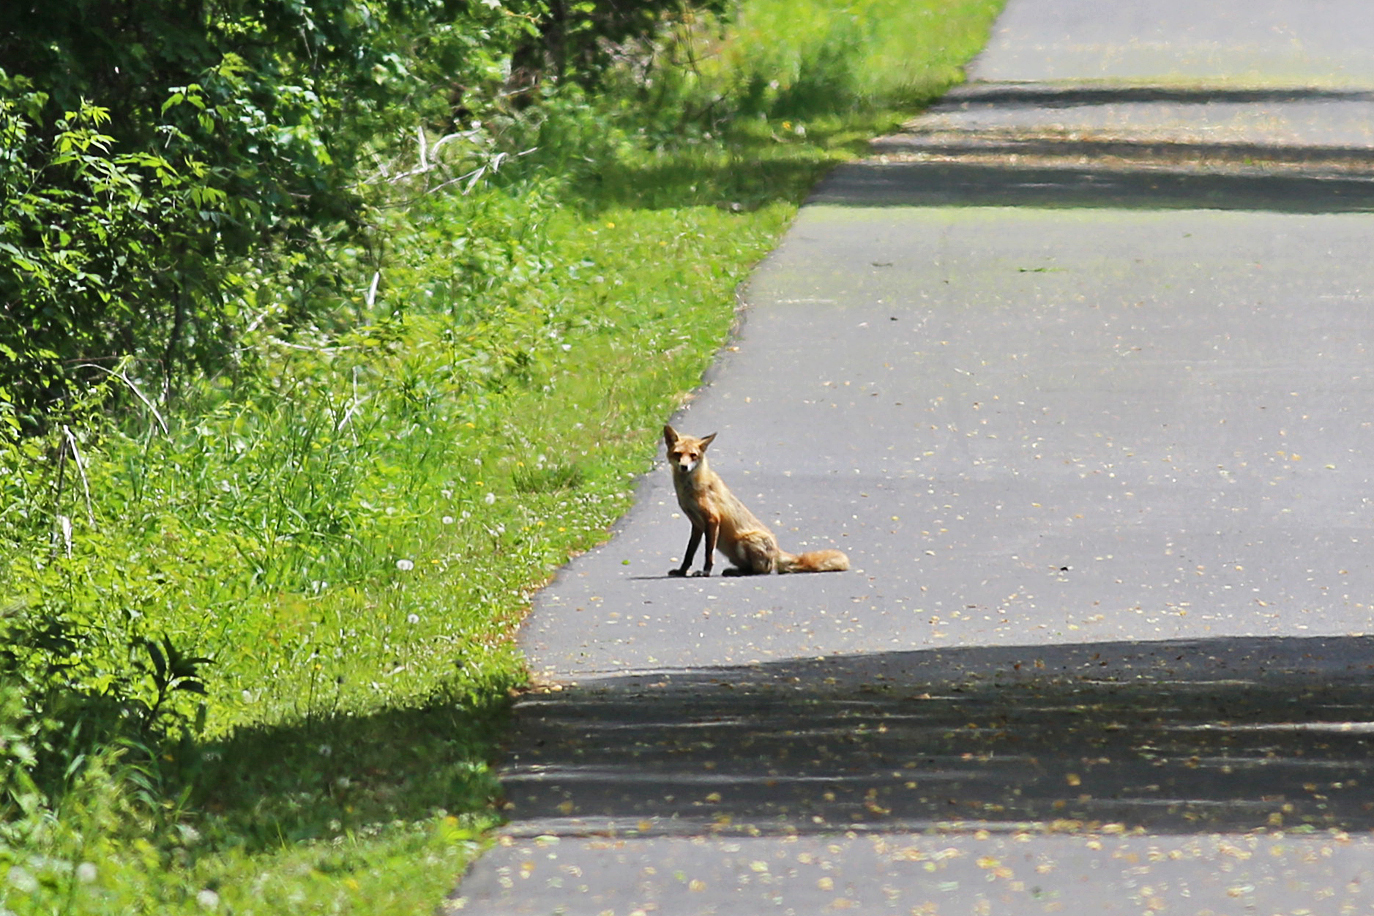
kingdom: Animalia
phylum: Chordata
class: Mammalia
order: Carnivora
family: Canidae
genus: Vulpes
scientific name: Vulpes vulpes
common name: Red fox
